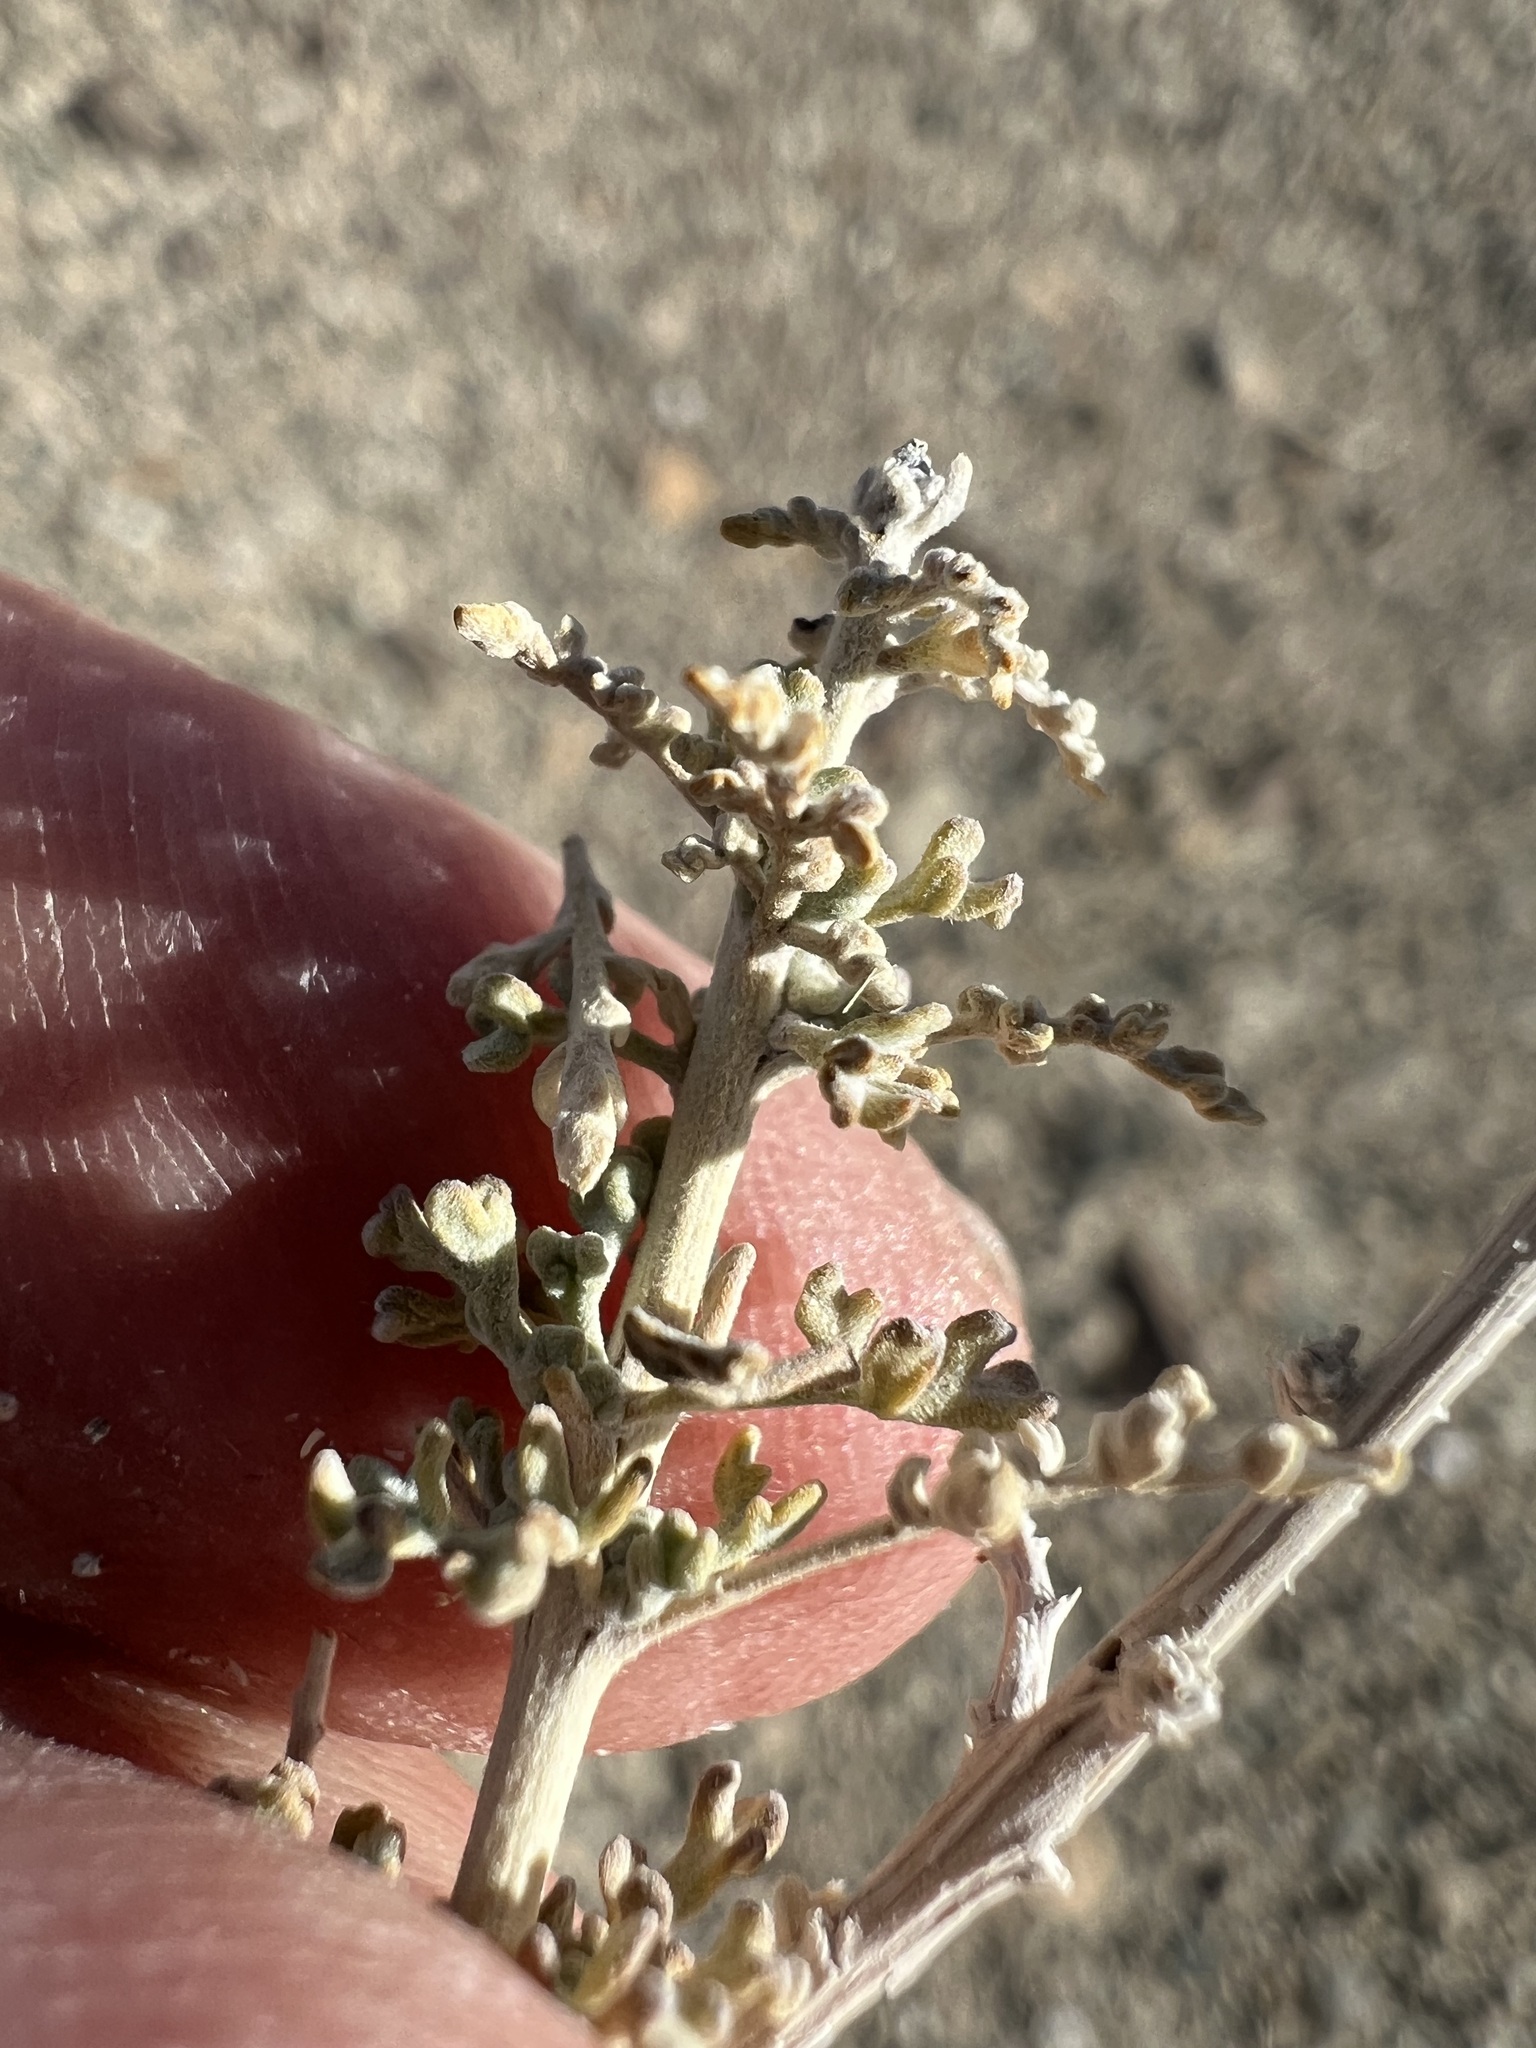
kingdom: Plantae
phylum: Tracheophyta
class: Magnoliopsida
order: Asterales
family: Asteraceae
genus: Ambrosia
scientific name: Ambrosia dumosa
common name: Bur-sage
